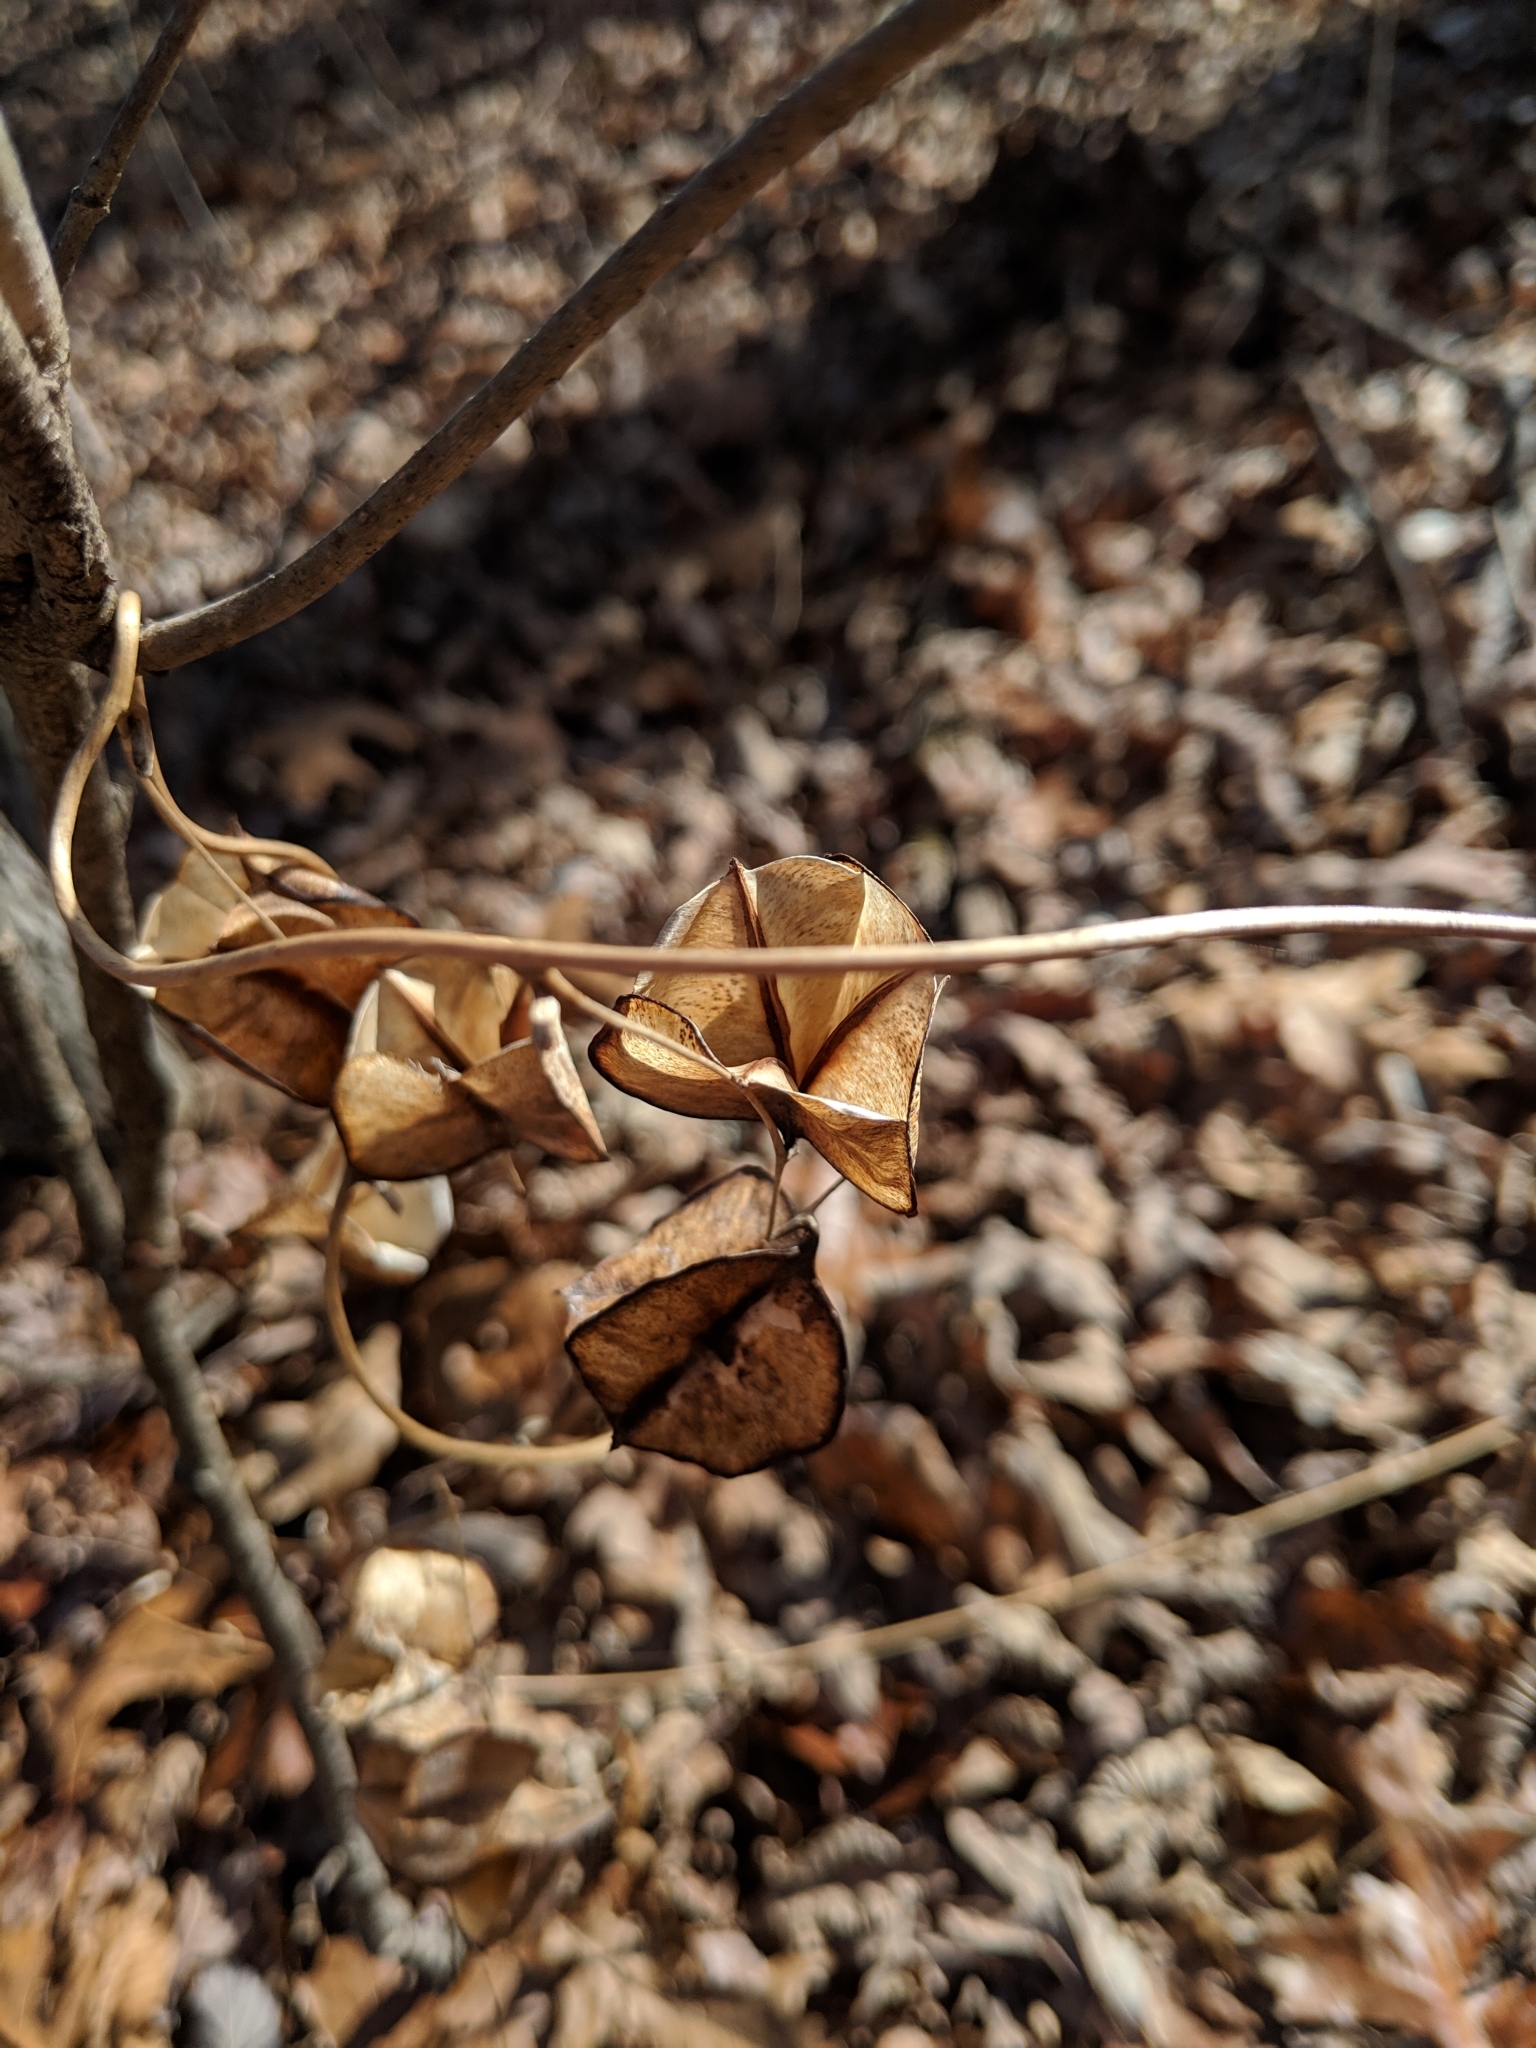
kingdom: Plantae
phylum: Tracheophyta
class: Liliopsida
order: Dioscoreales
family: Dioscoreaceae
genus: Dioscorea
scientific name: Dioscorea villosa
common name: Wild yam
